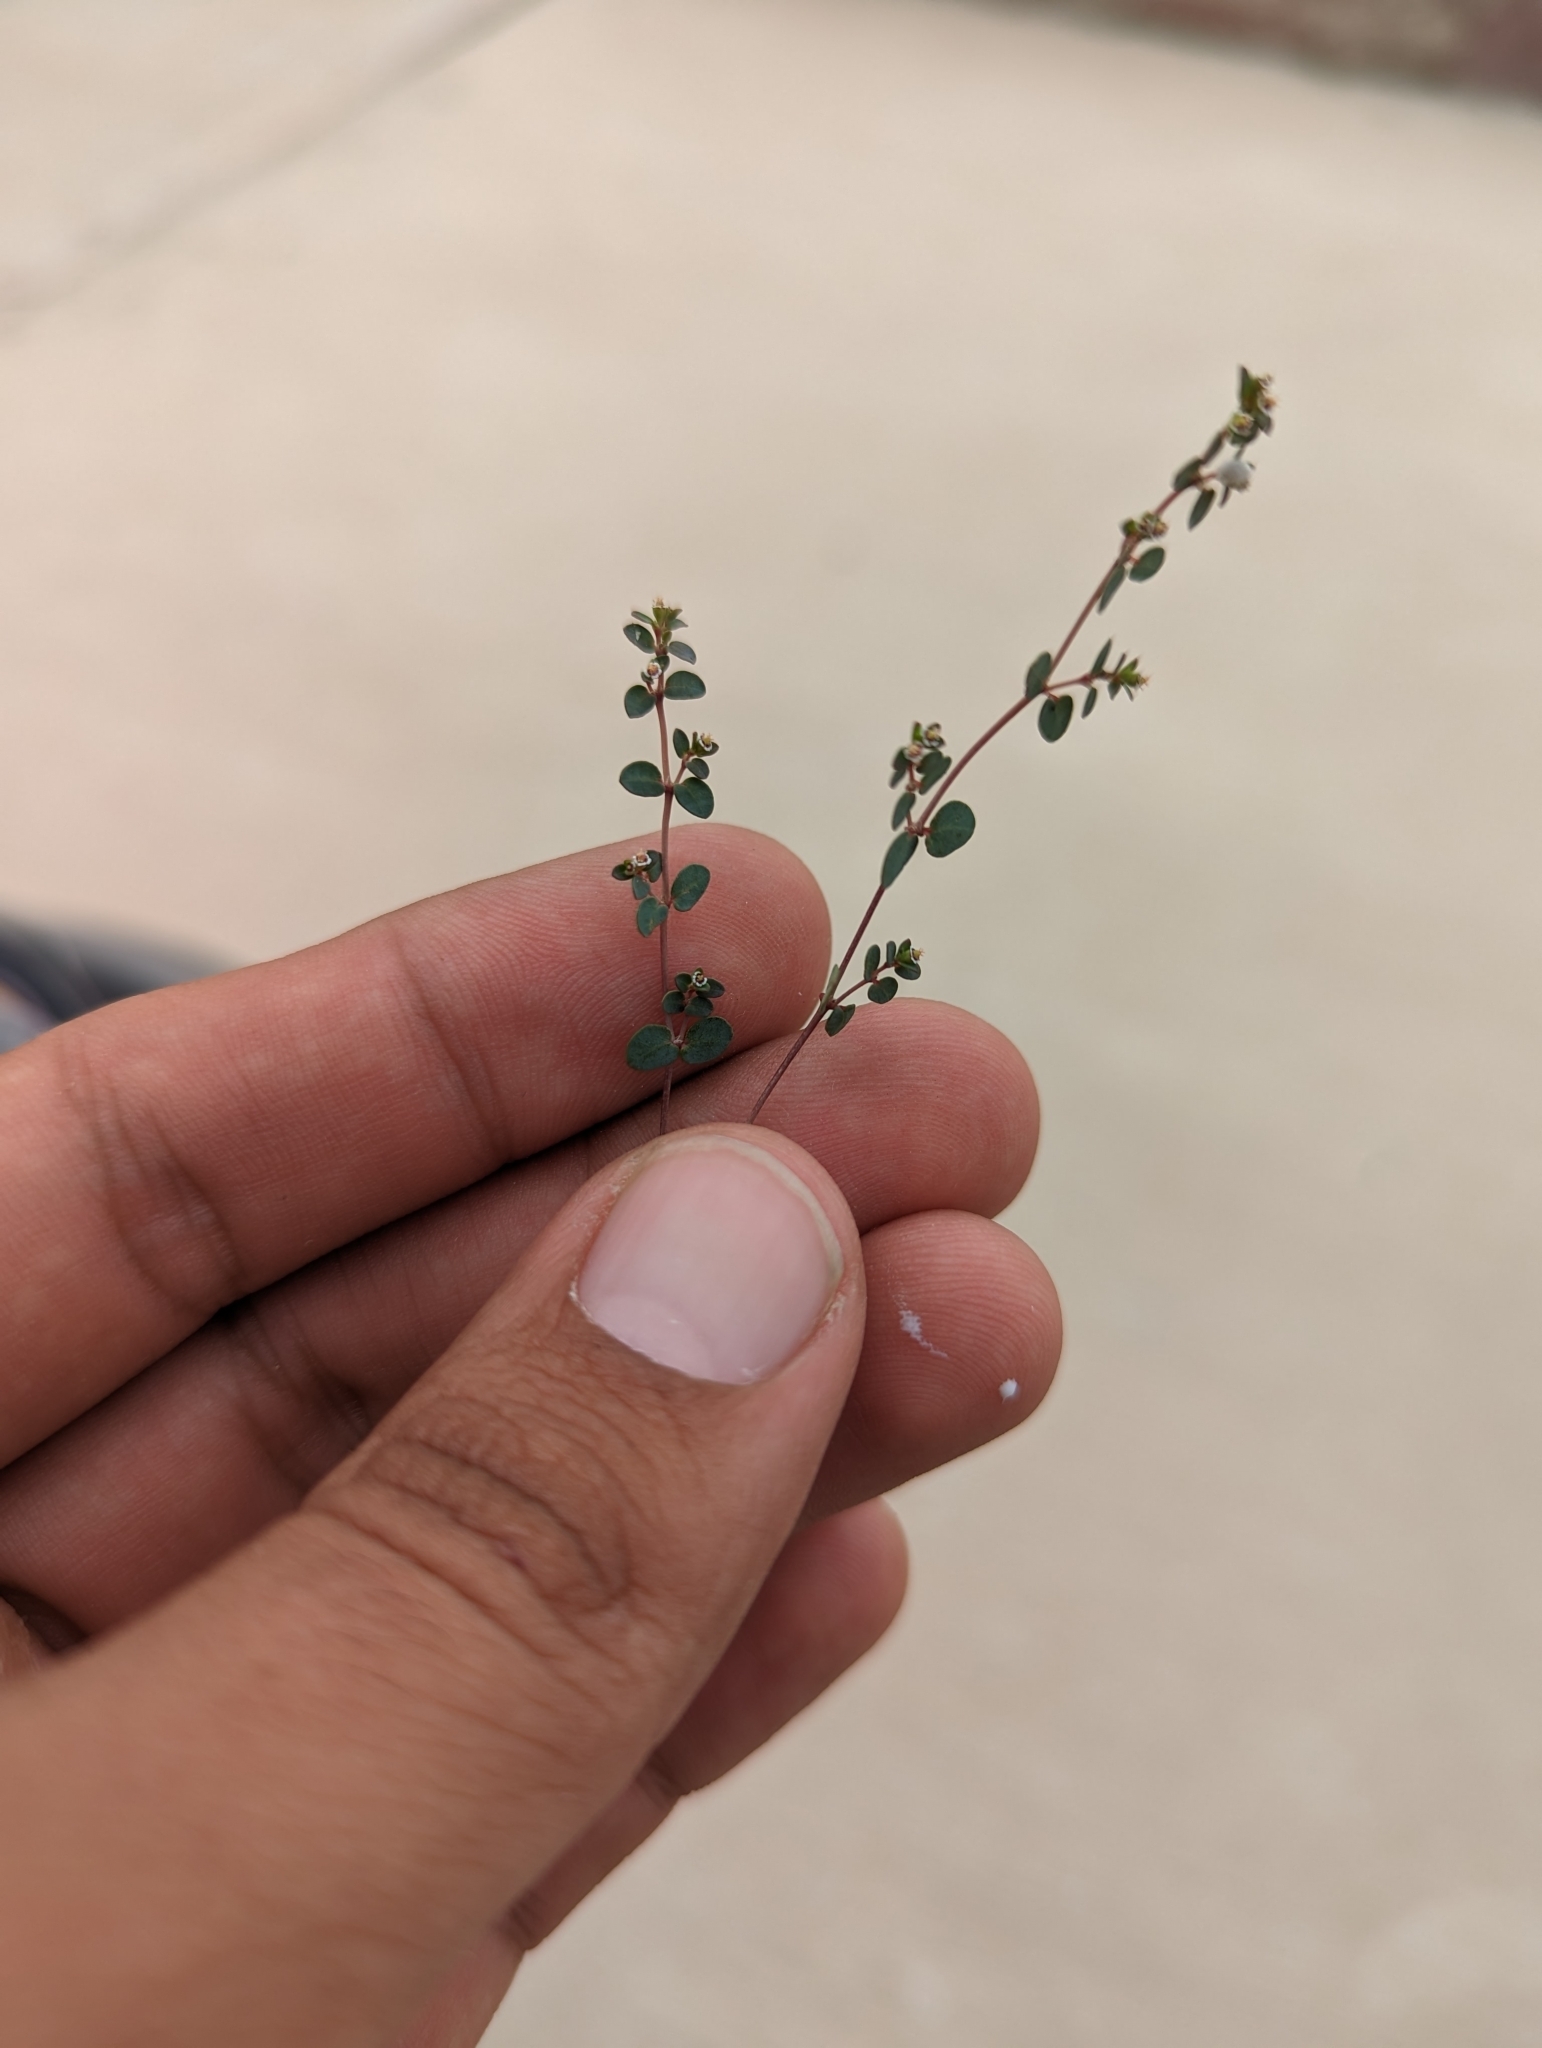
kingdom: Plantae
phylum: Tracheophyta
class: Magnoliopsida
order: Malpighiales
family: Euphorbiaceae
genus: Euphorbia
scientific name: Euphorbia polycarpa
